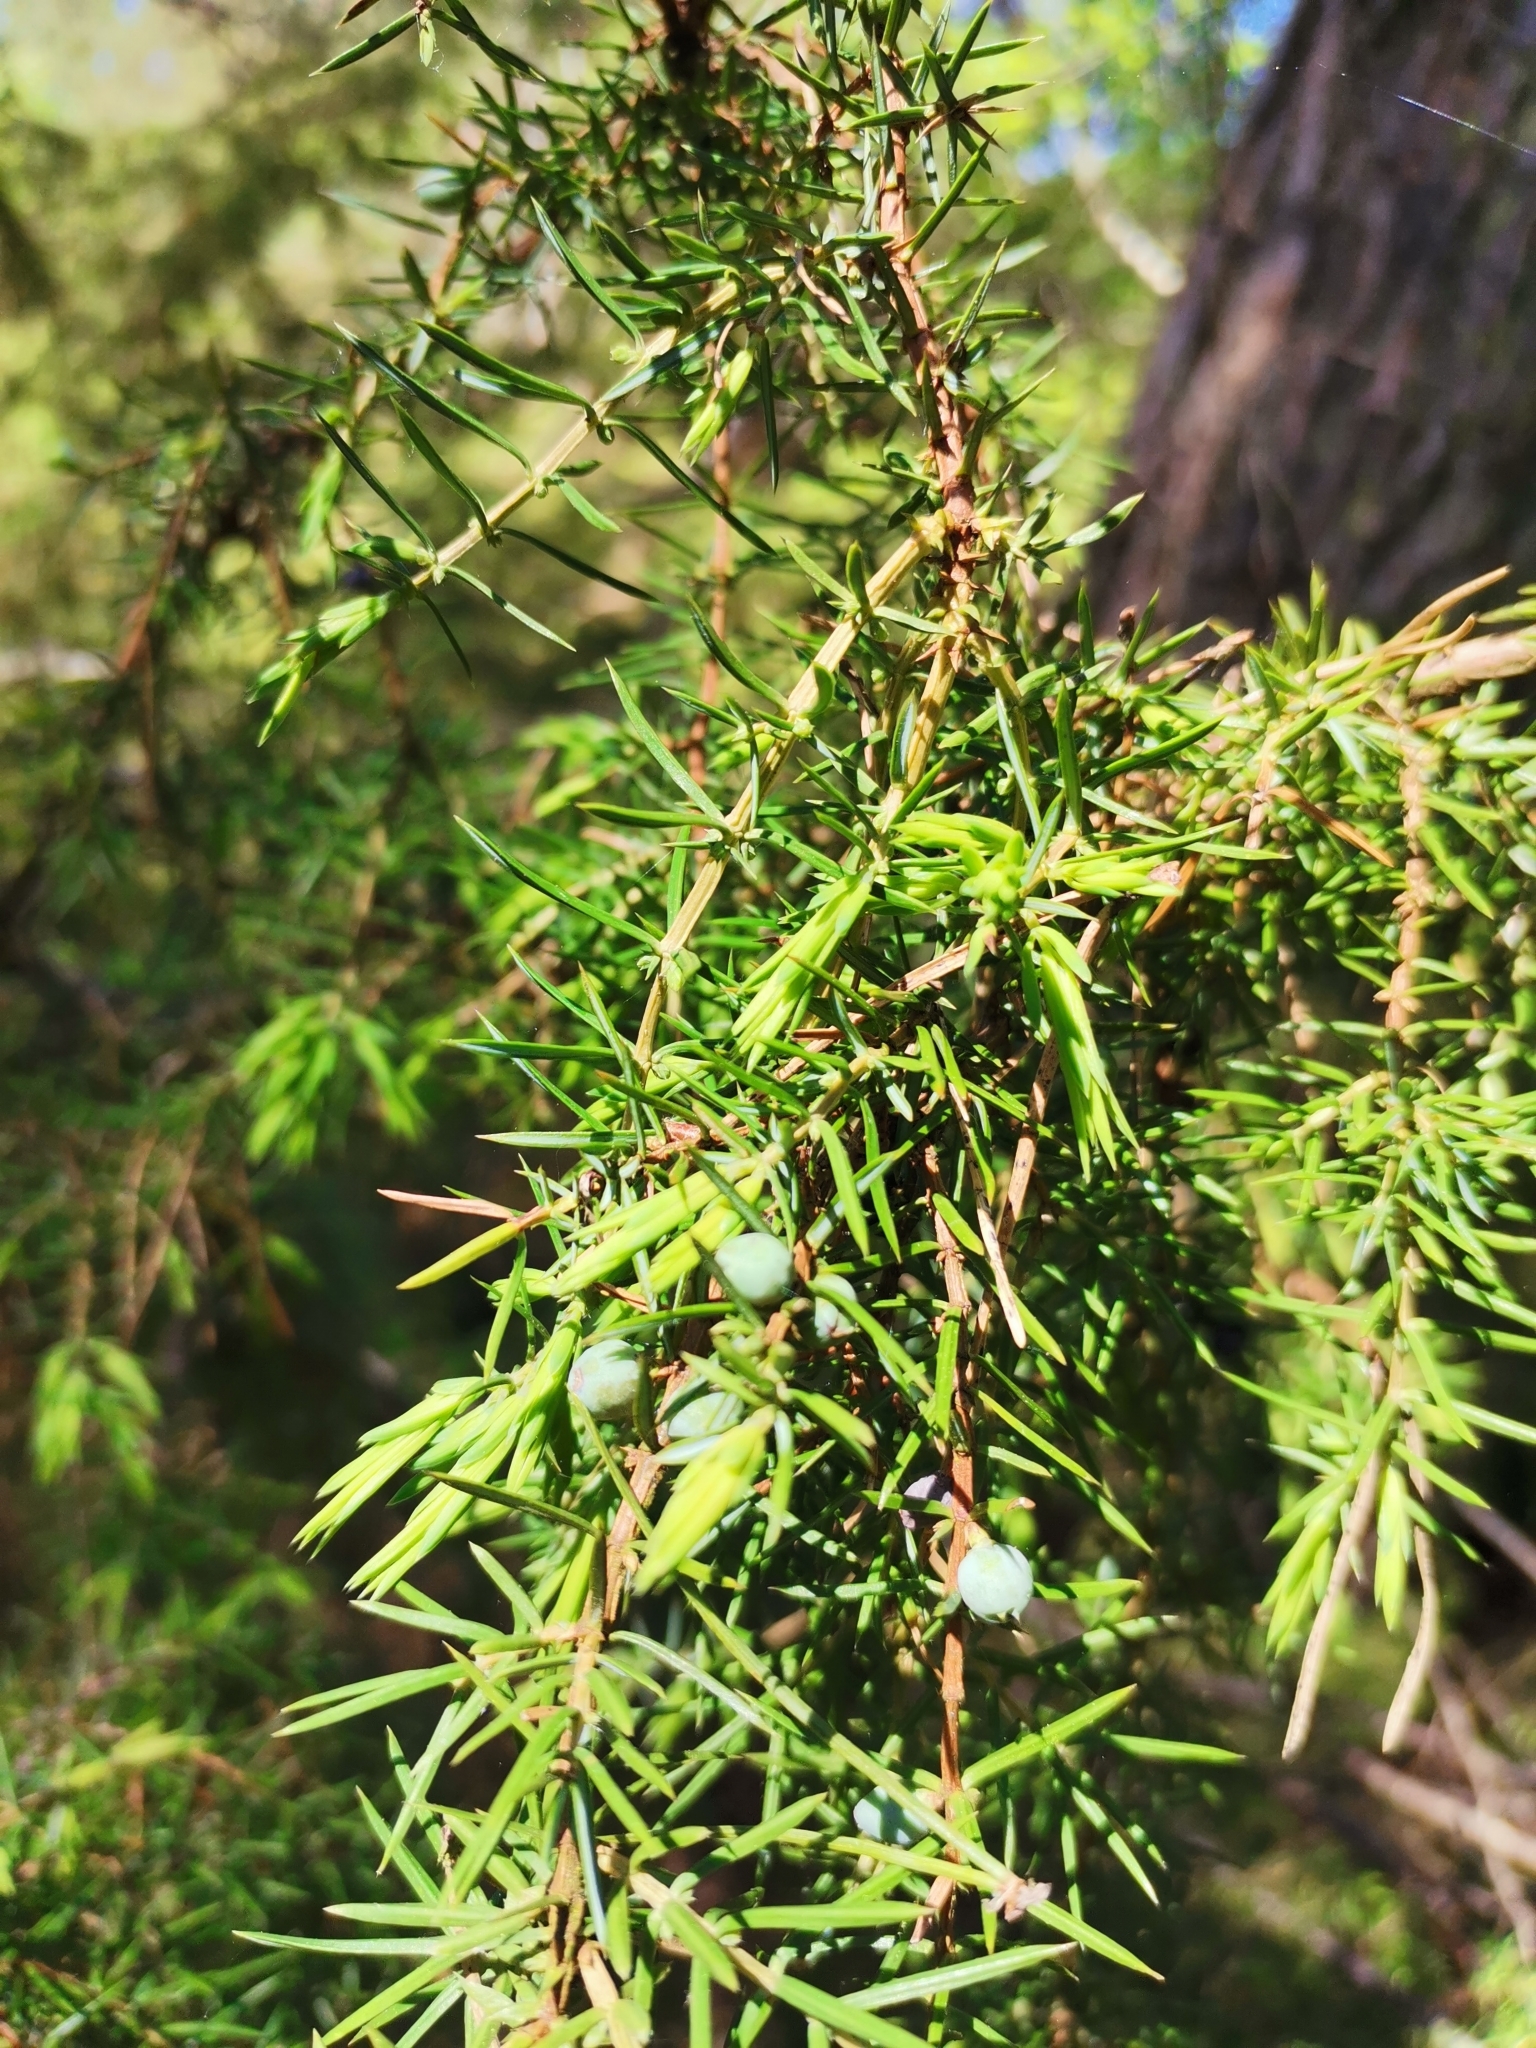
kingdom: Plantae
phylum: Tracheophyta
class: Pinopsida
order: Pinales
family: Cupressaceae
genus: Juniperus
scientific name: Juniperus communis
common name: Common juniper
